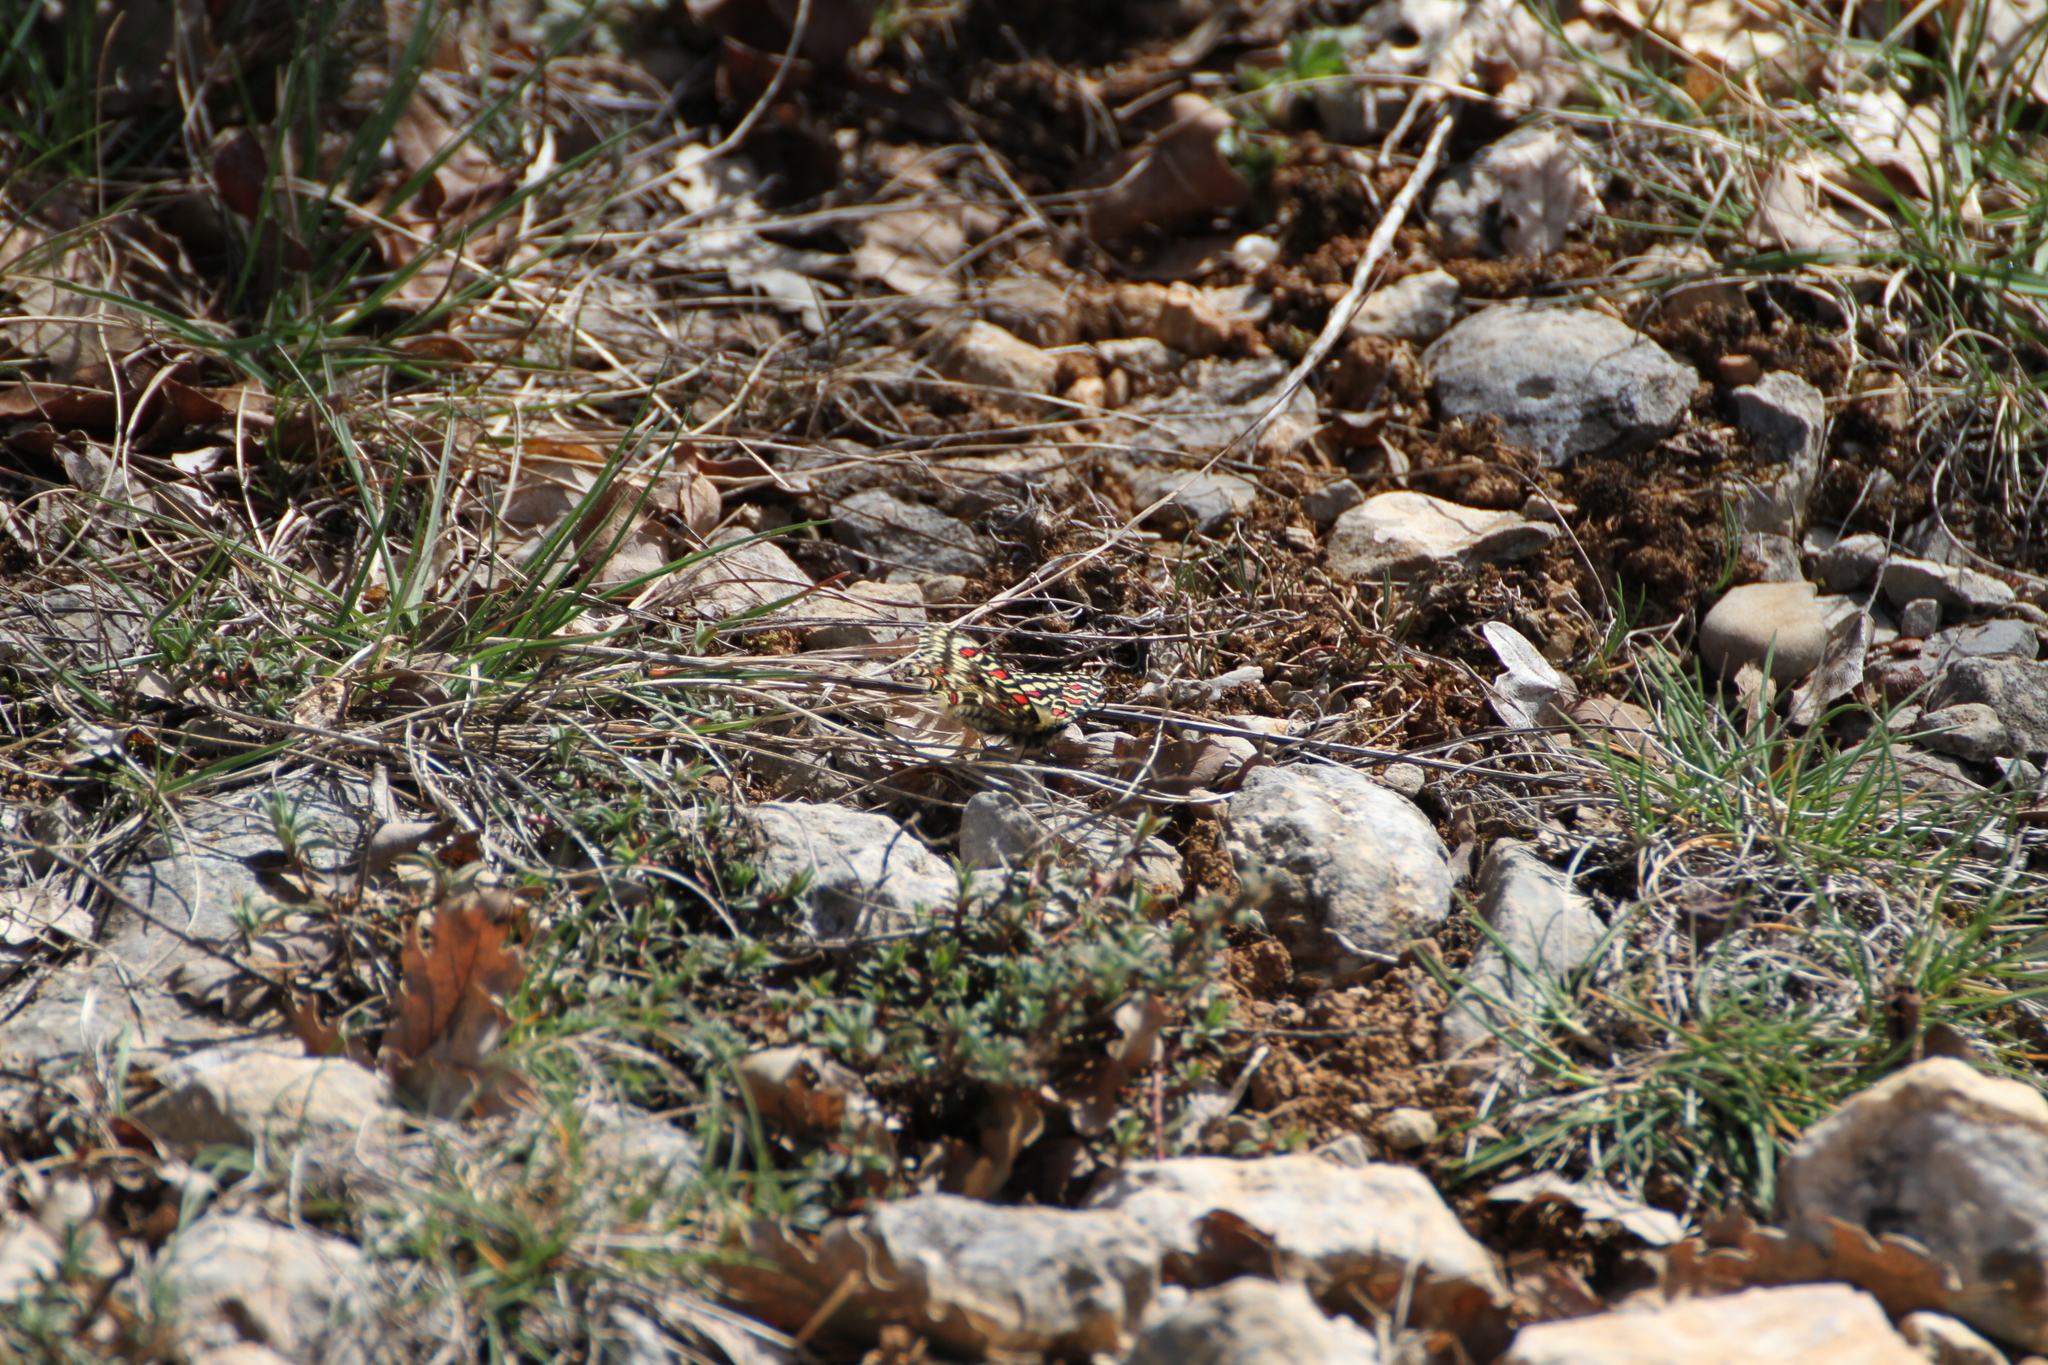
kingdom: Animalia
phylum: Arthropoda
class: Insecta
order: Lepidoptera
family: Papilionidae
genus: Zerynthia
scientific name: Zerynthia rumina
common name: Spanish festoon
